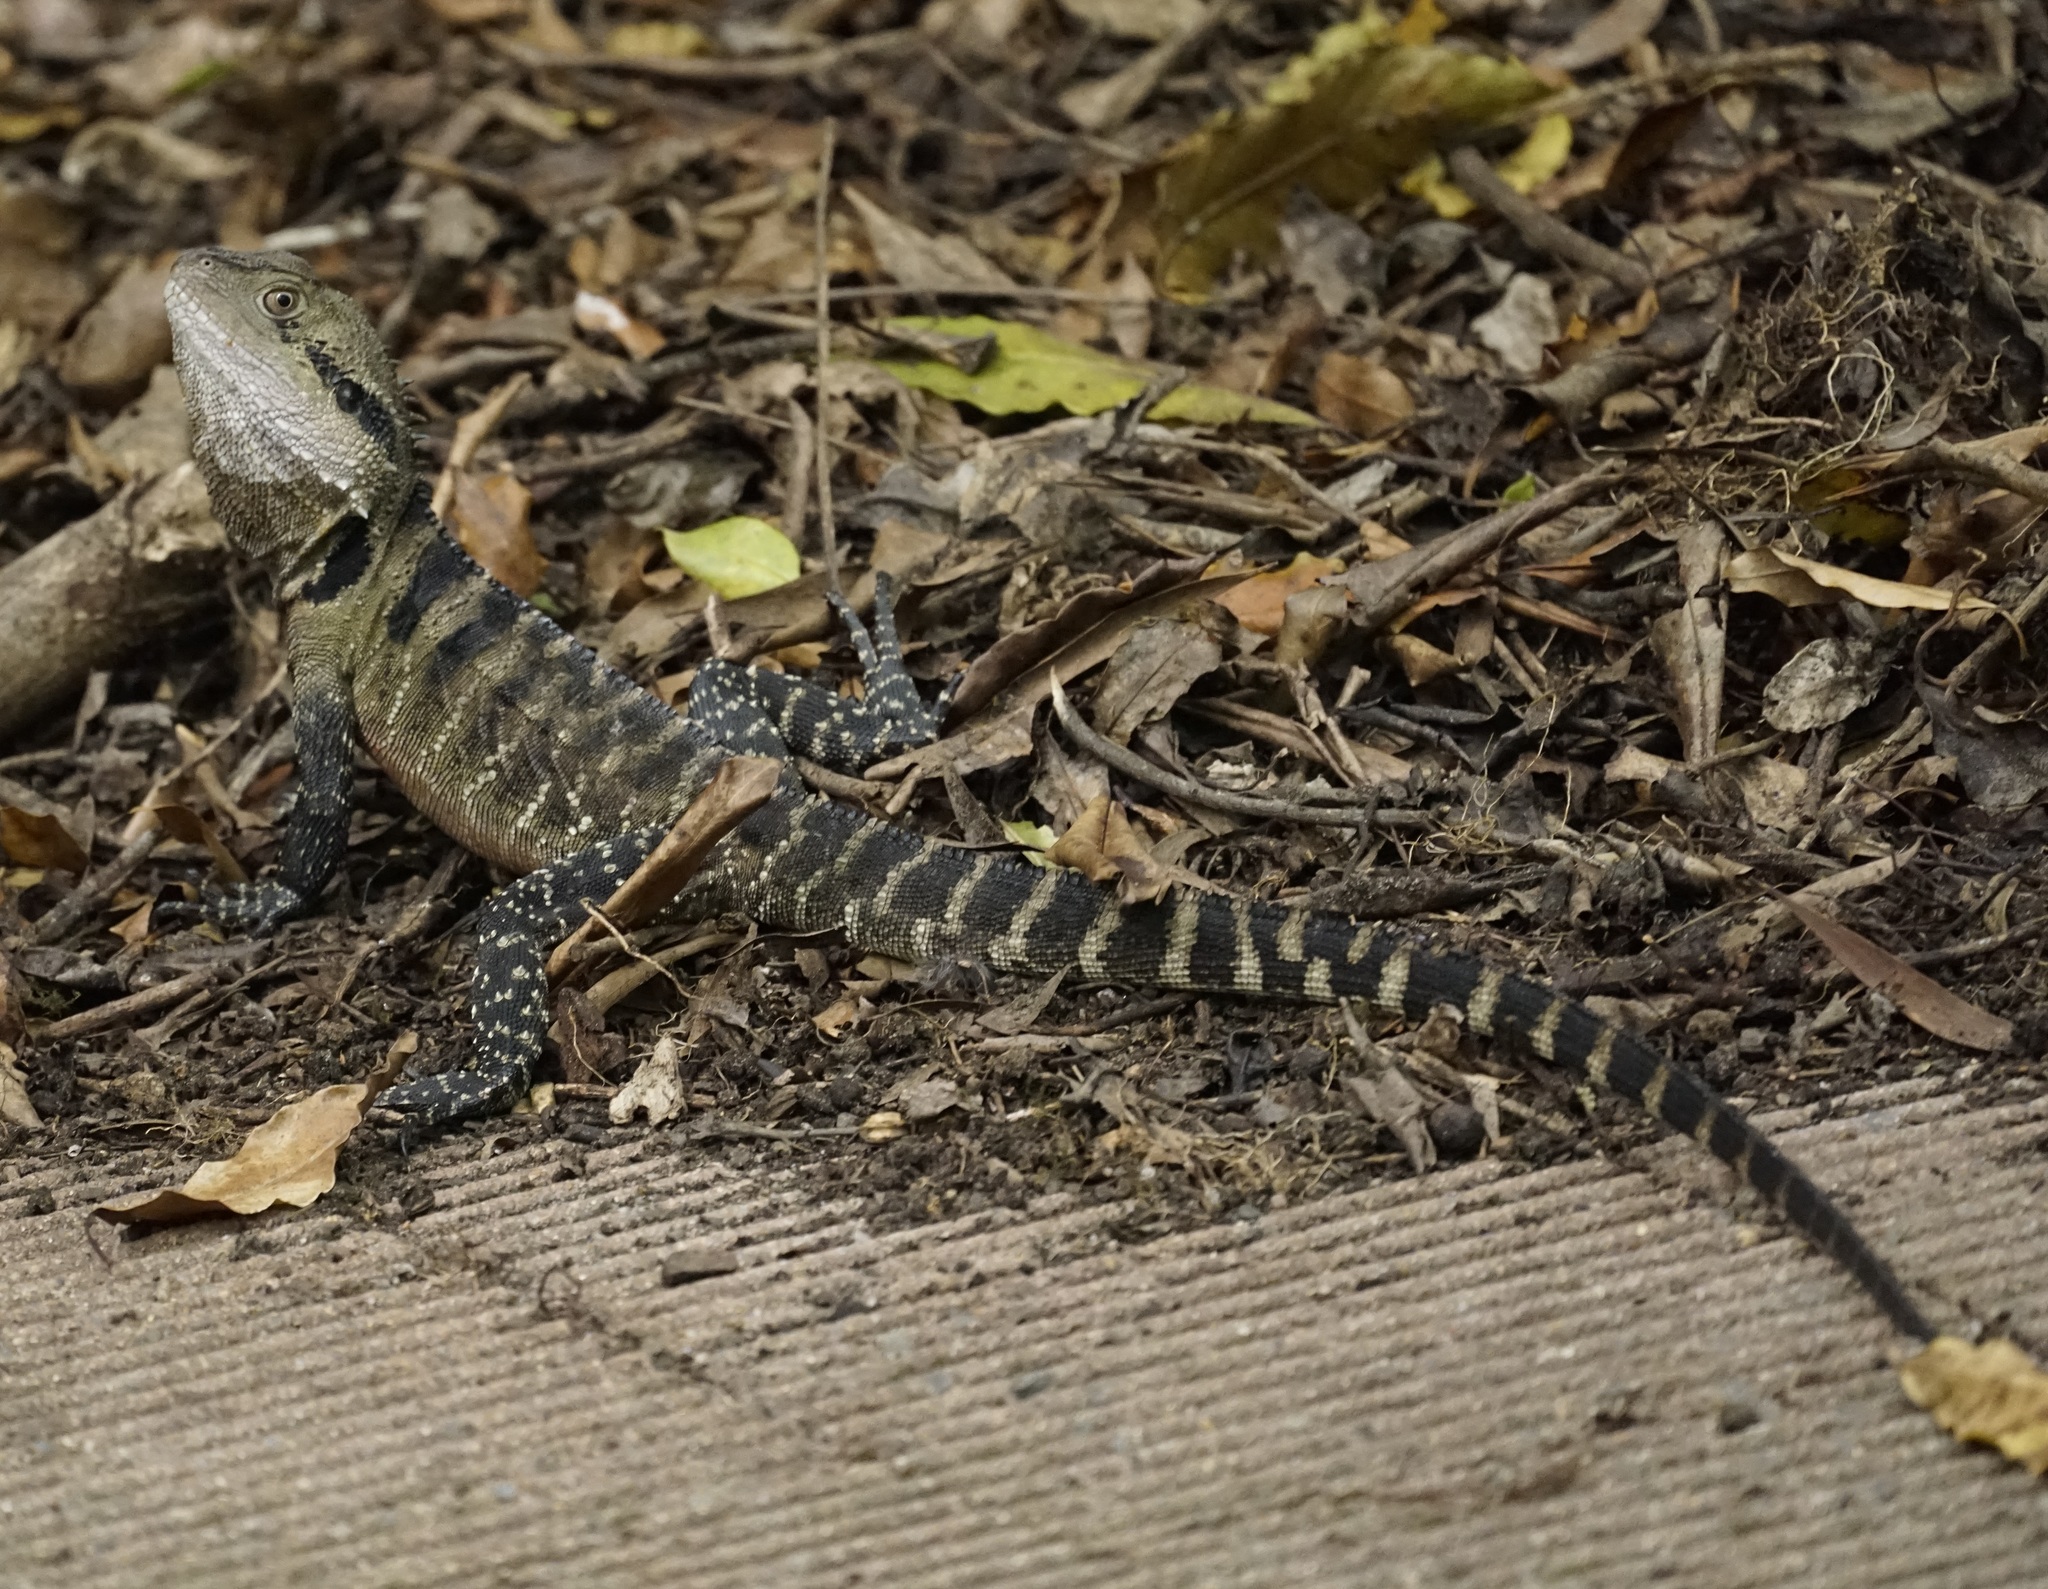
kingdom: Animalia
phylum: Chordata
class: Squamata
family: Agamidae
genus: Intellagama
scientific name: Intellagama lesueurii
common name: Eastern water dragon
